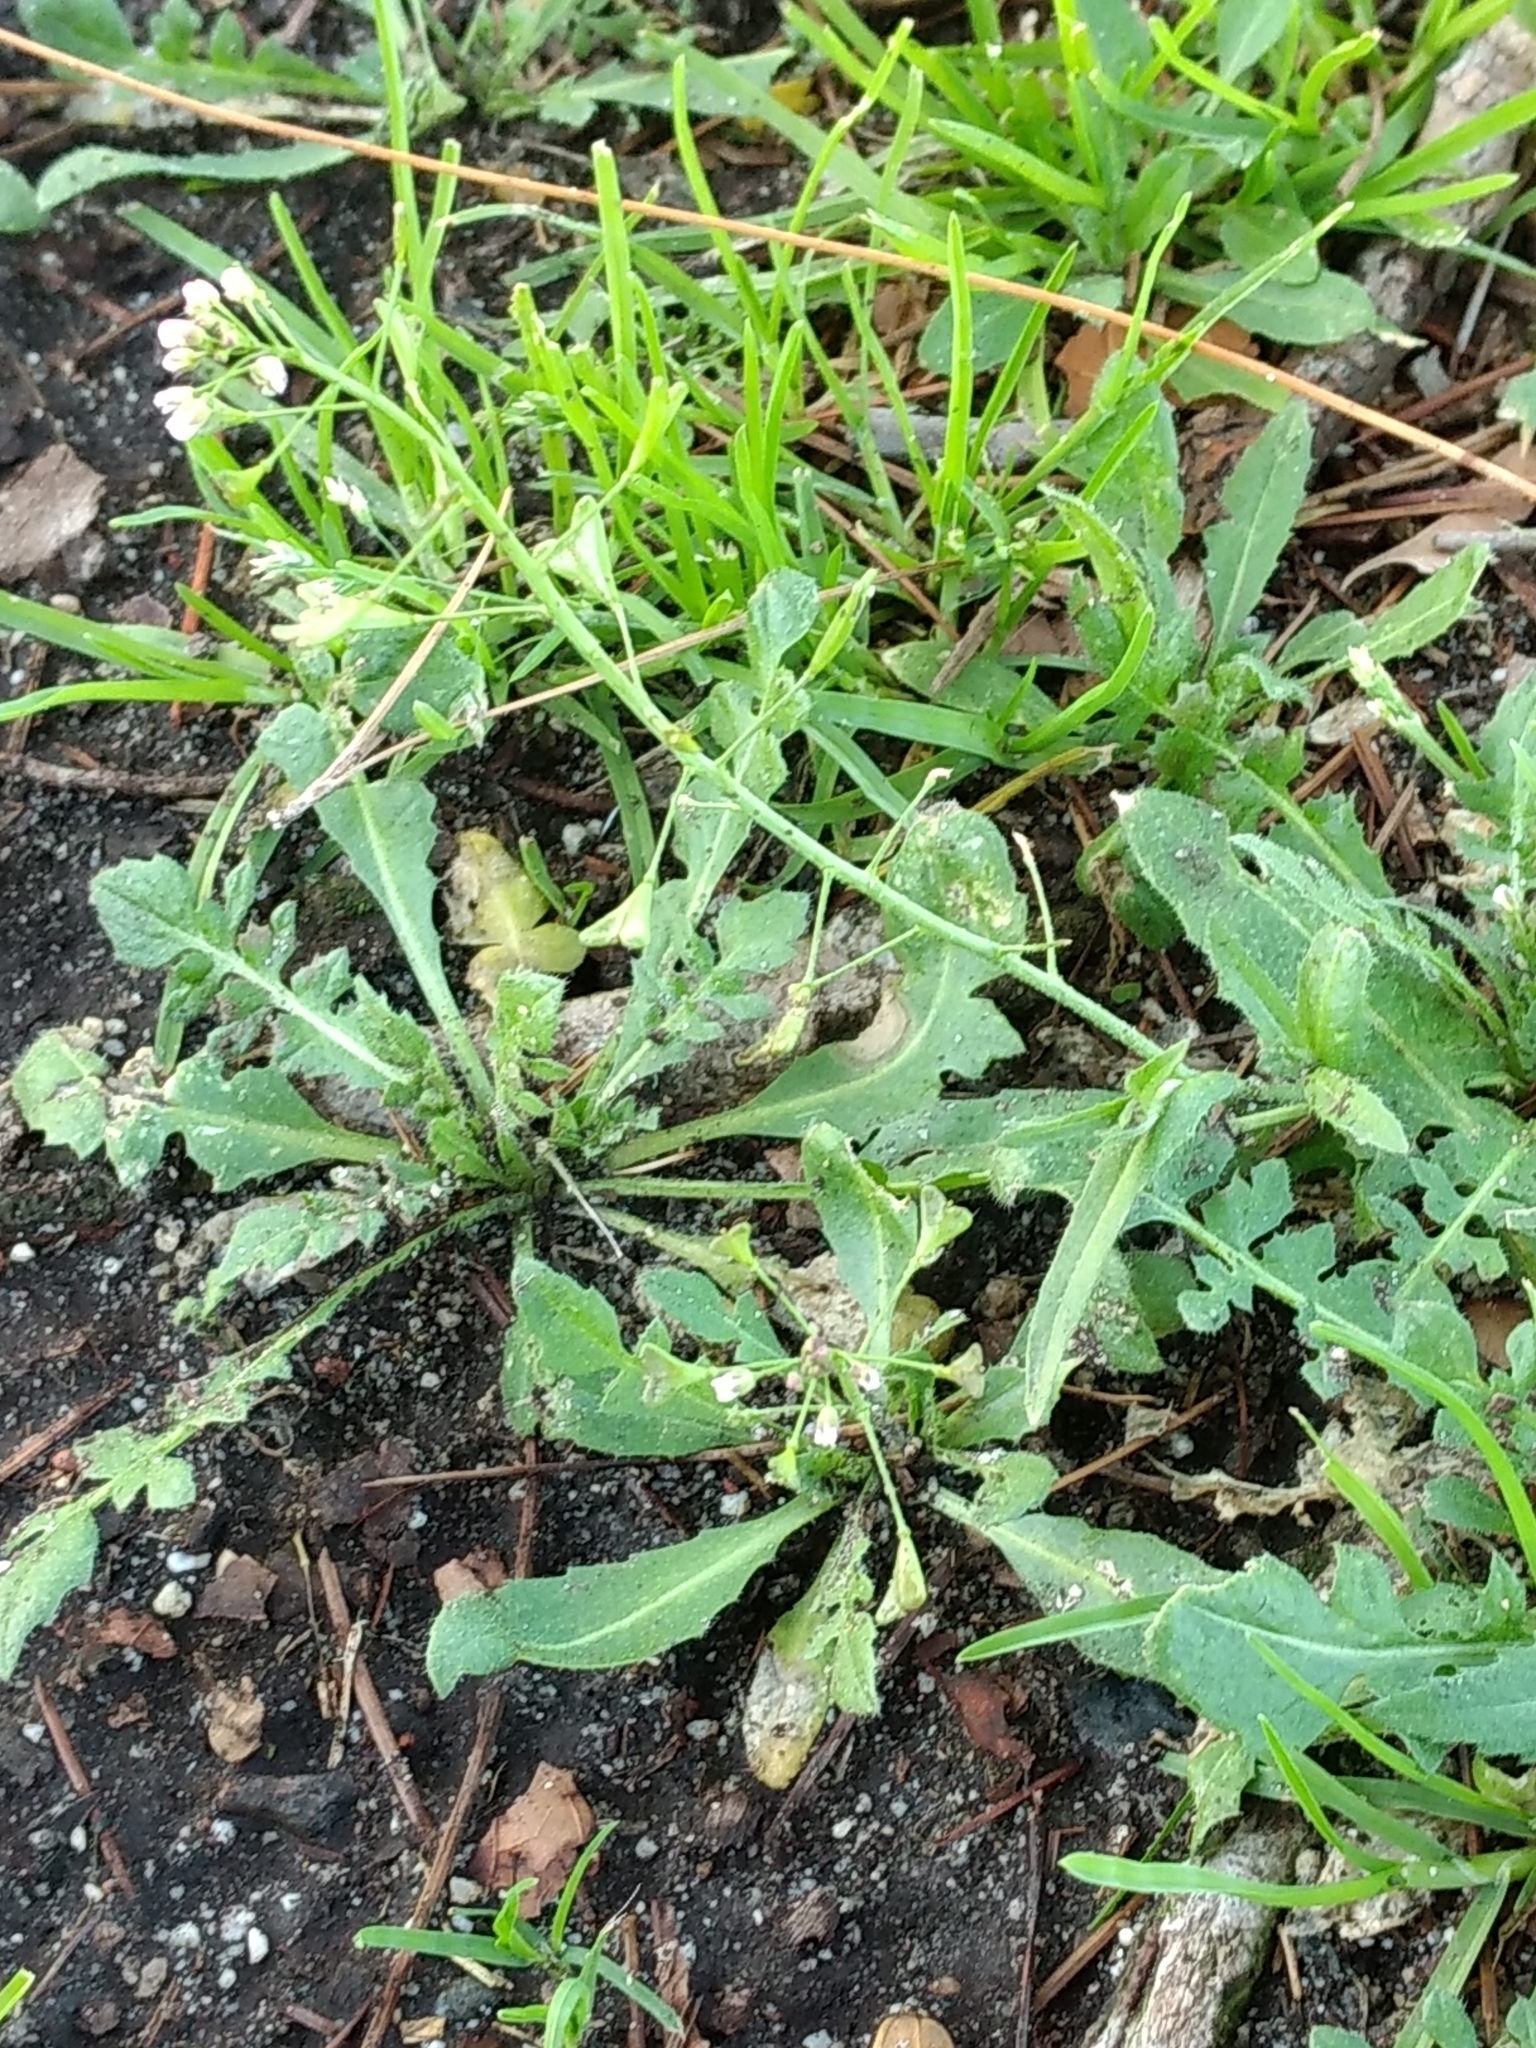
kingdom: Plantae
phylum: Tracheophyta
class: Magnoliopsida
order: Brassicales
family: Brassicaceae
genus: Capsella
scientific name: Capsella bursa-pastoris
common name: Shepherd's purse
